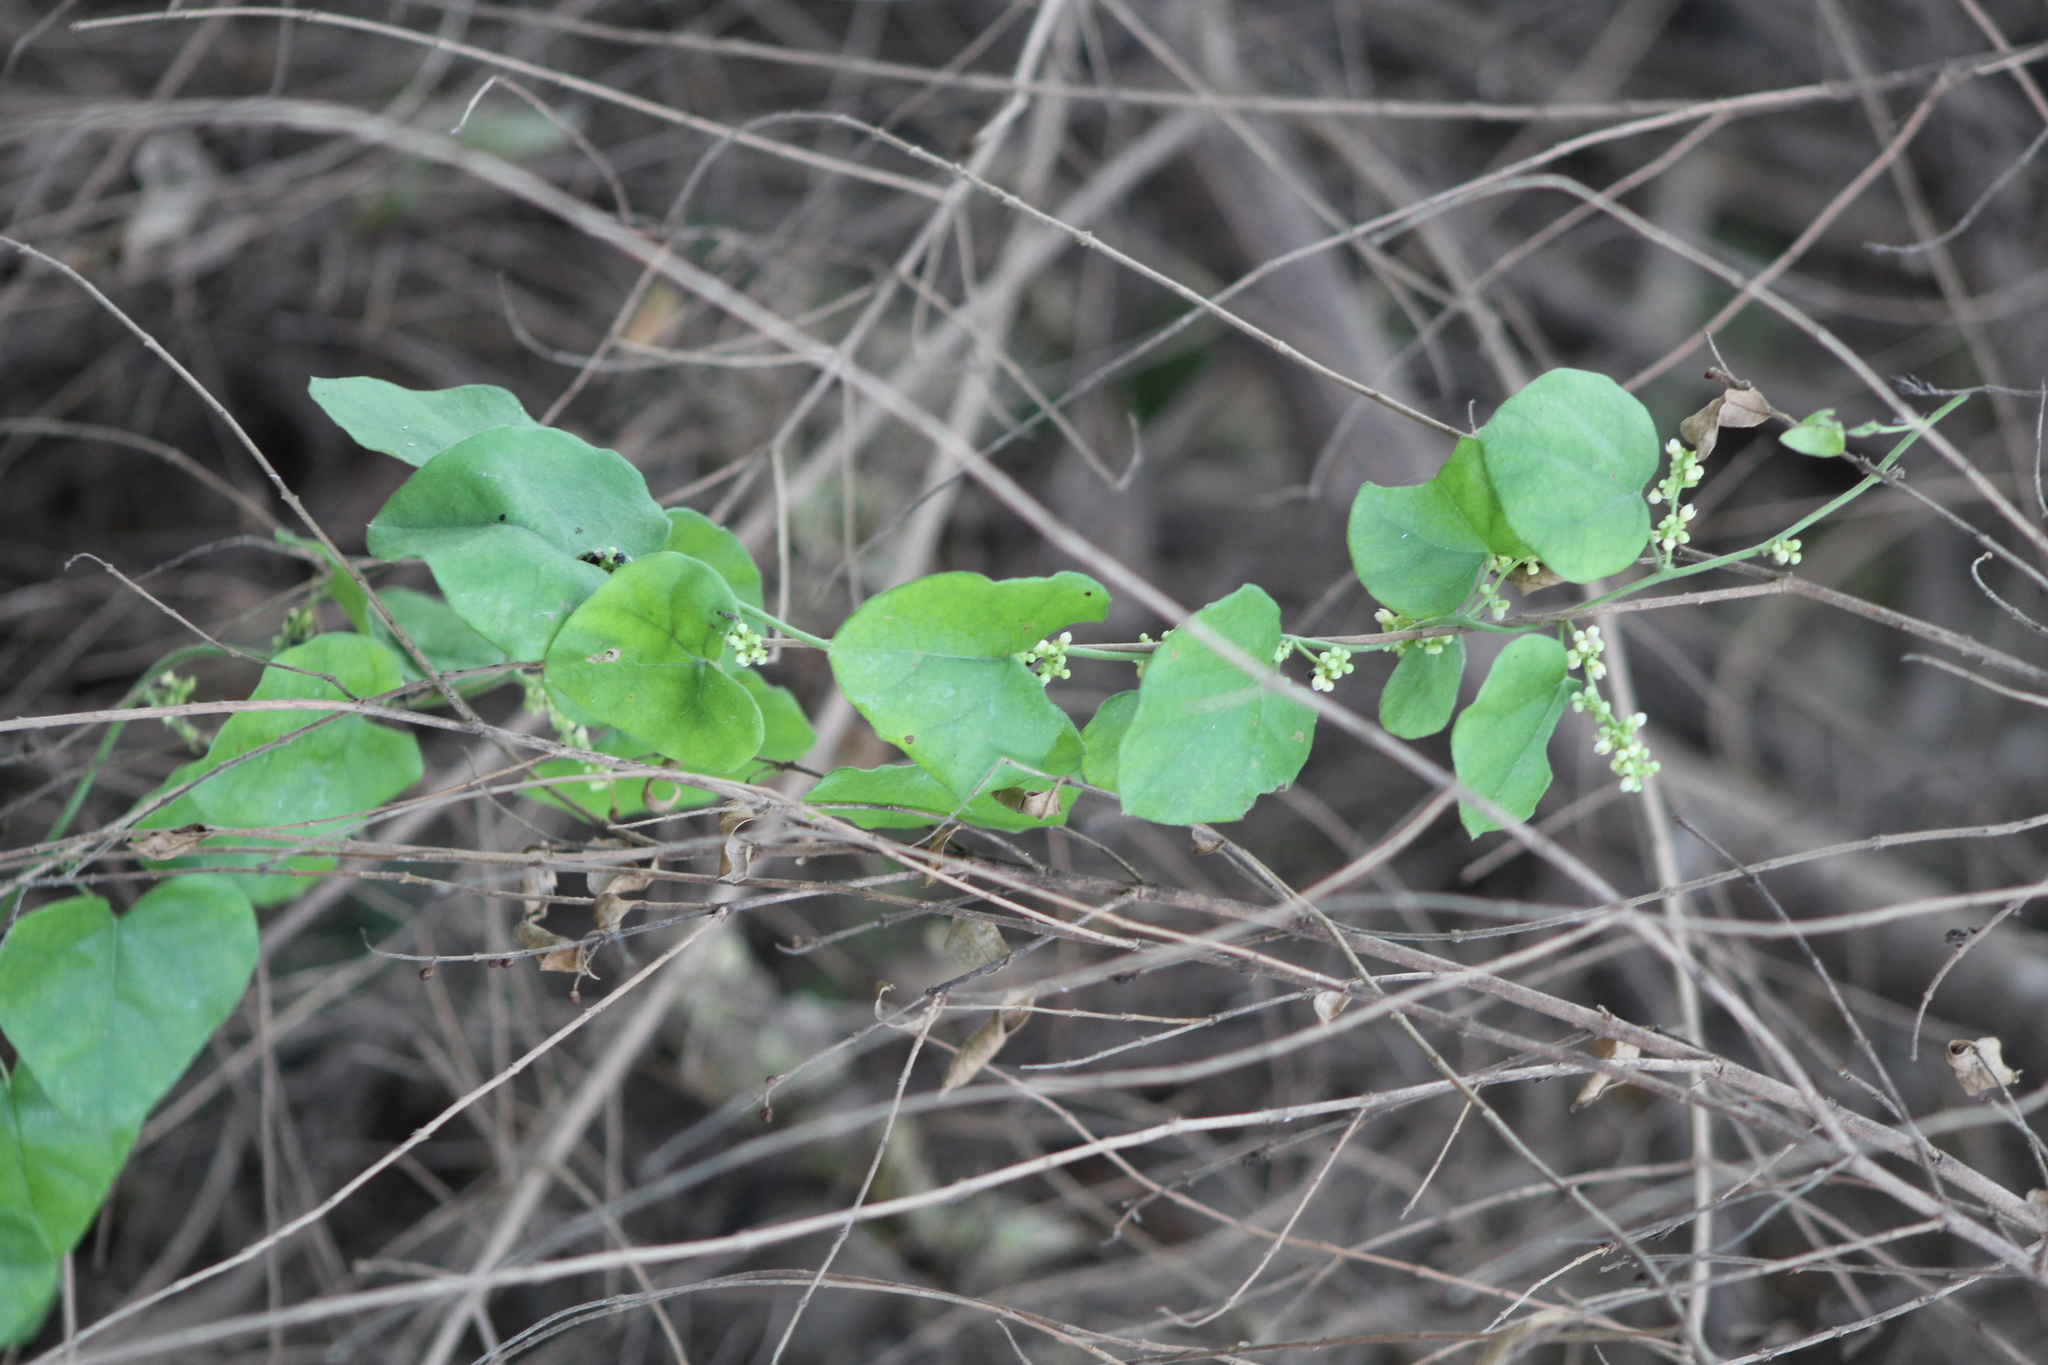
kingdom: Plantae
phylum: Tracheophyta
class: Magnoliopsida
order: Ranunculales
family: Menispermaceae
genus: Cocculus
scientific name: Cocculus carolinus
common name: Carolina moonseed
